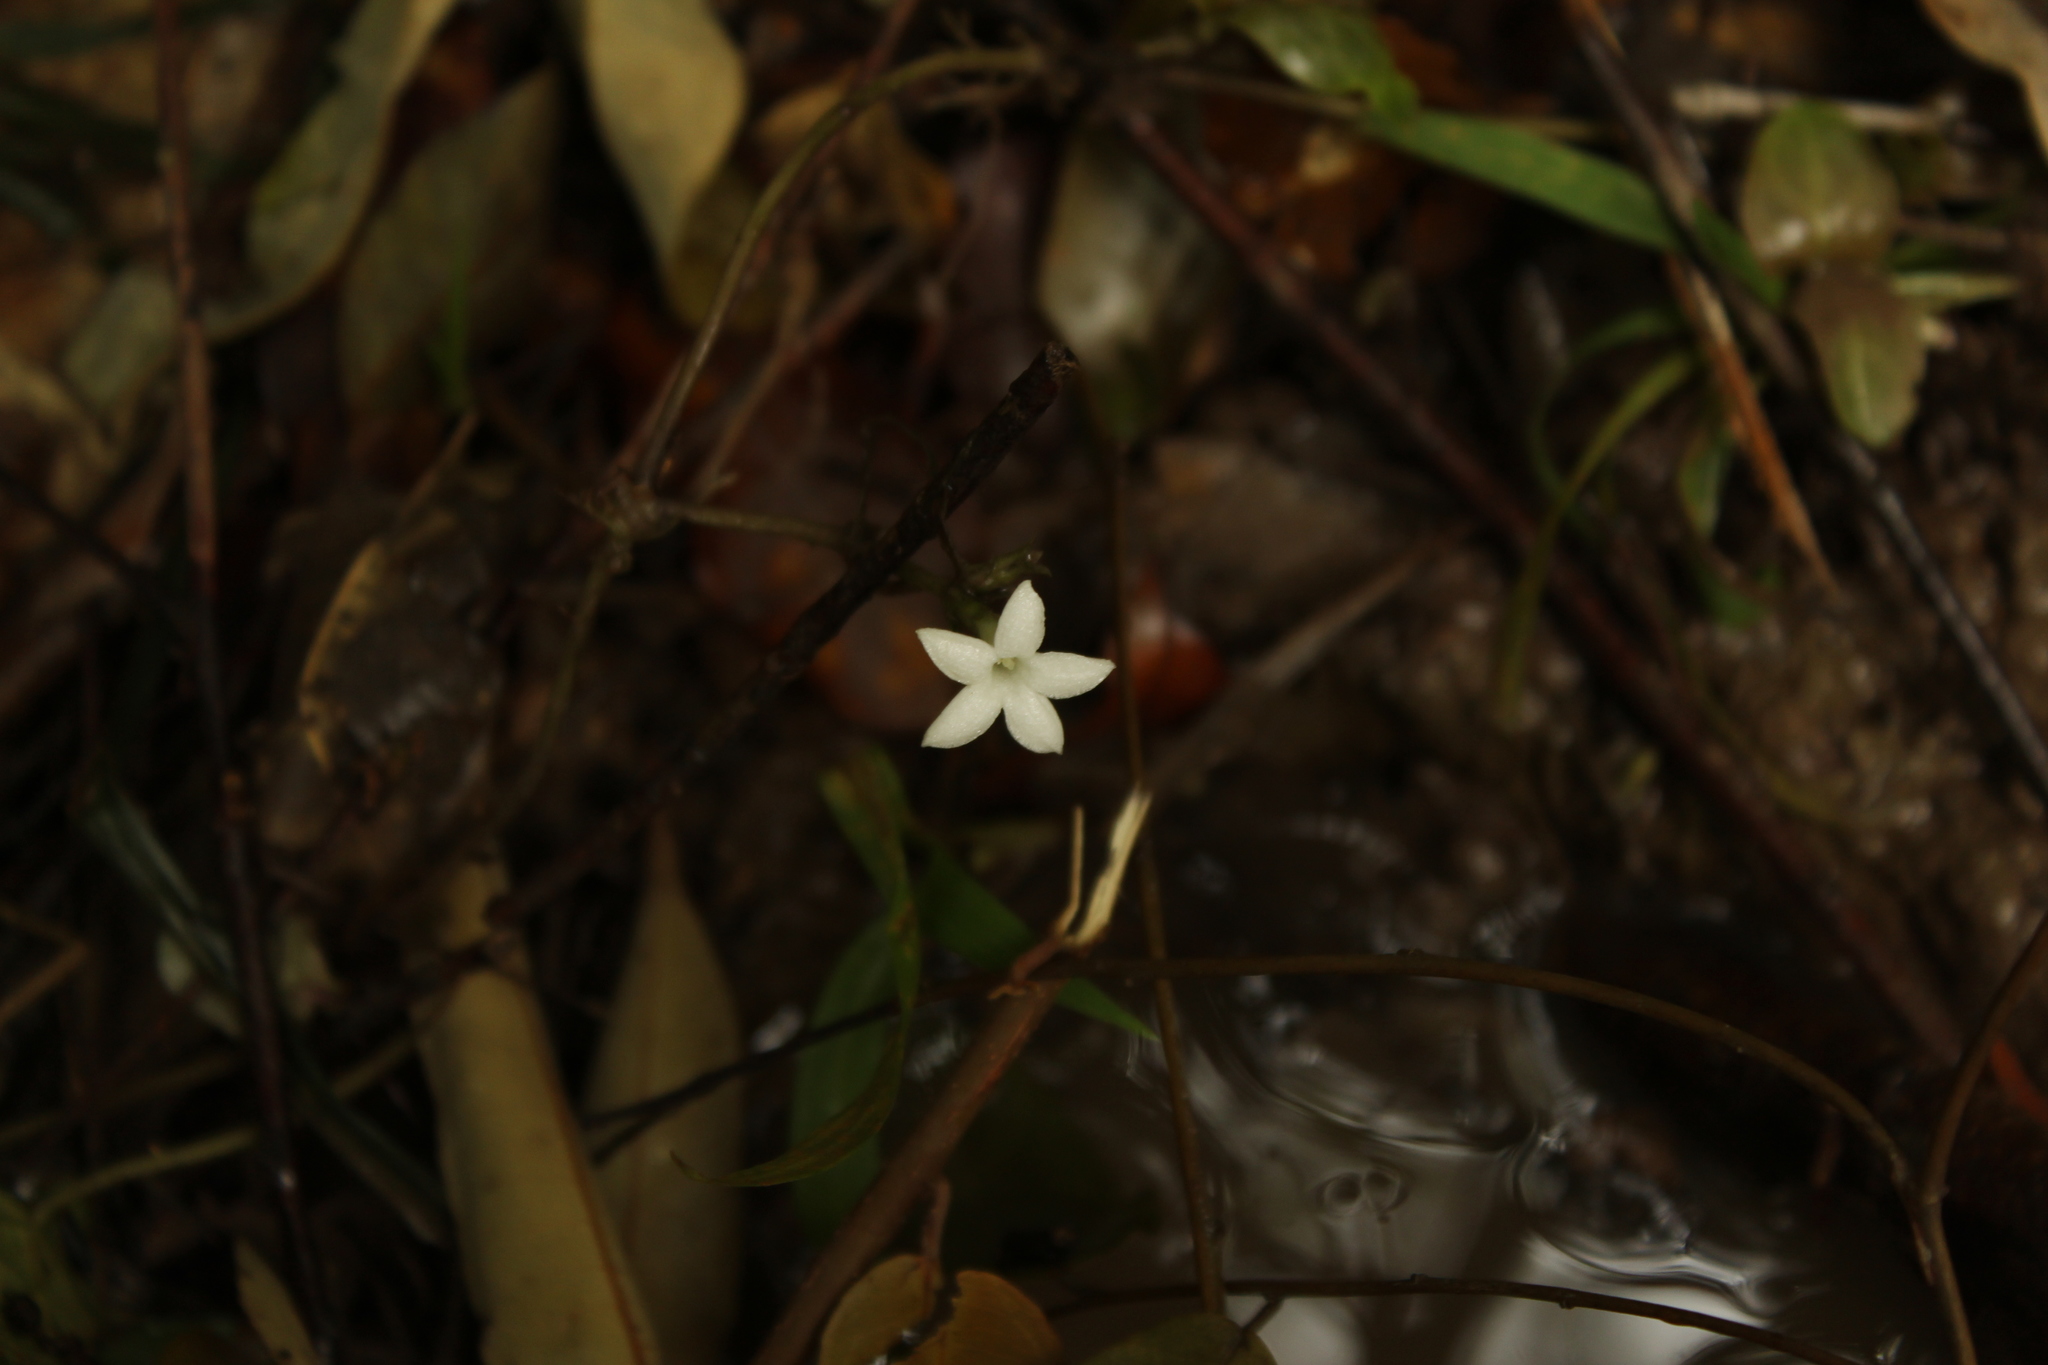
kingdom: Plantae
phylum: Tracheophyta
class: Magnoliopsida
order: Gentianales
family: Rubiaceae
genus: Geophila
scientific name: Geophila
